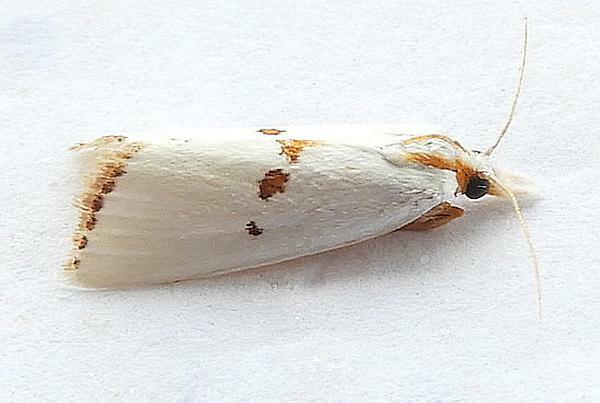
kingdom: Animalia
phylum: Arthropoda
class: Insecta
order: Lepidoptera
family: Crambidae
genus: Crambus
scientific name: Crambus tripsacas
